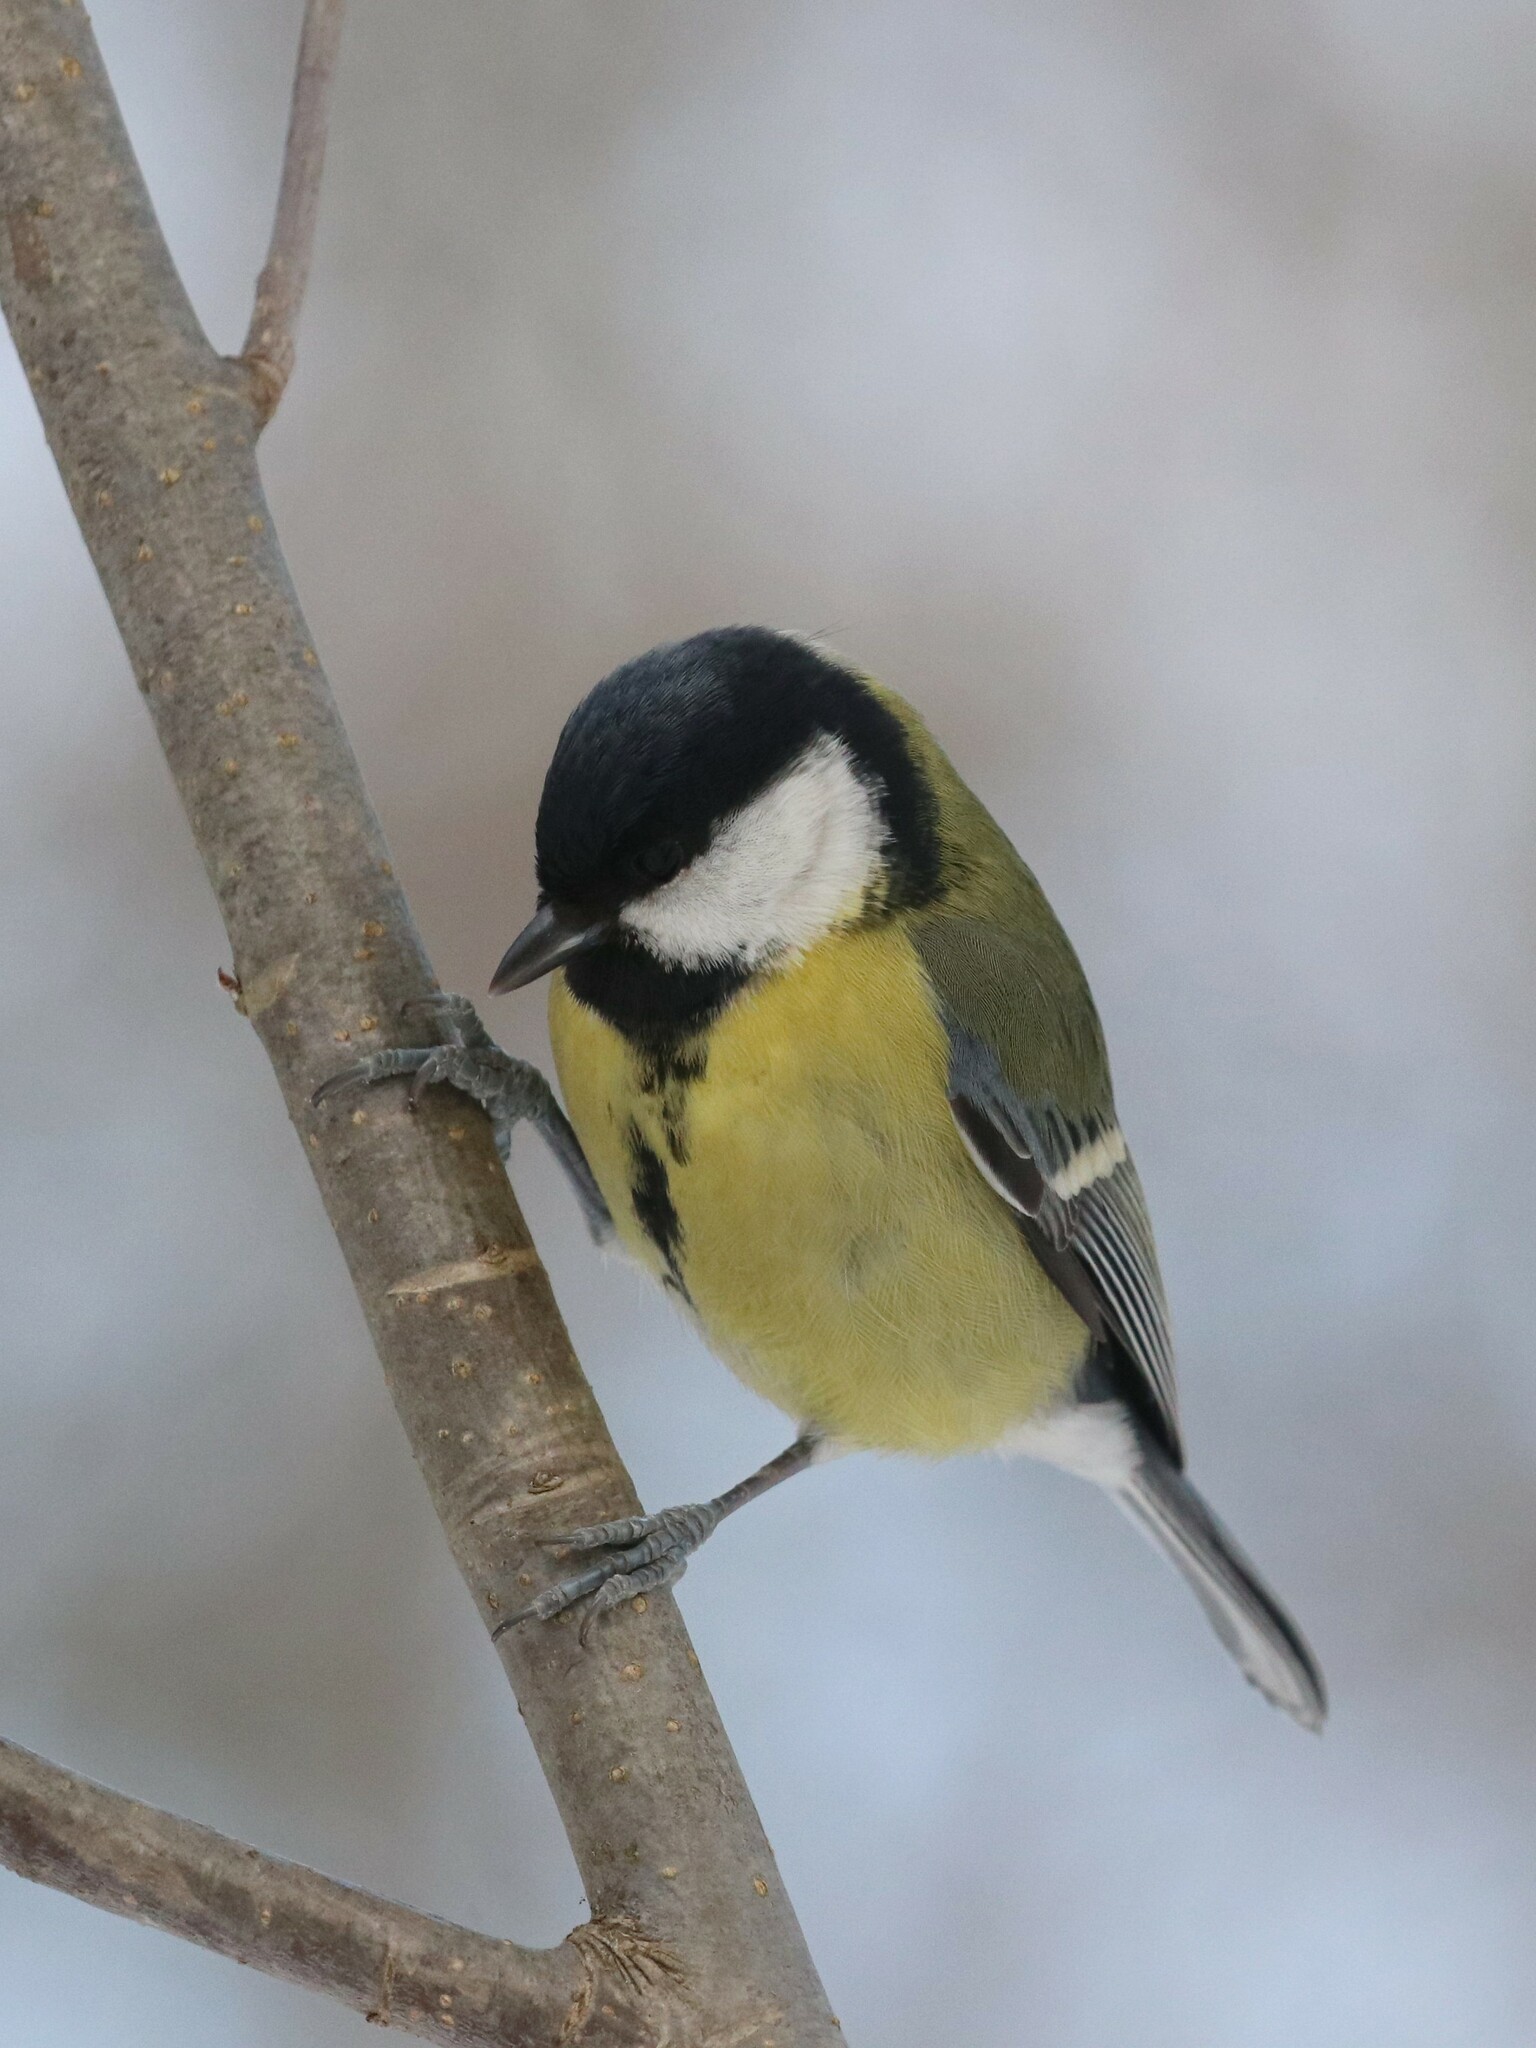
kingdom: Animalia
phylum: Chordata
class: Aves
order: Passeriformes
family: Paridae
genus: Parus
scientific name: Parus major
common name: Great tit
